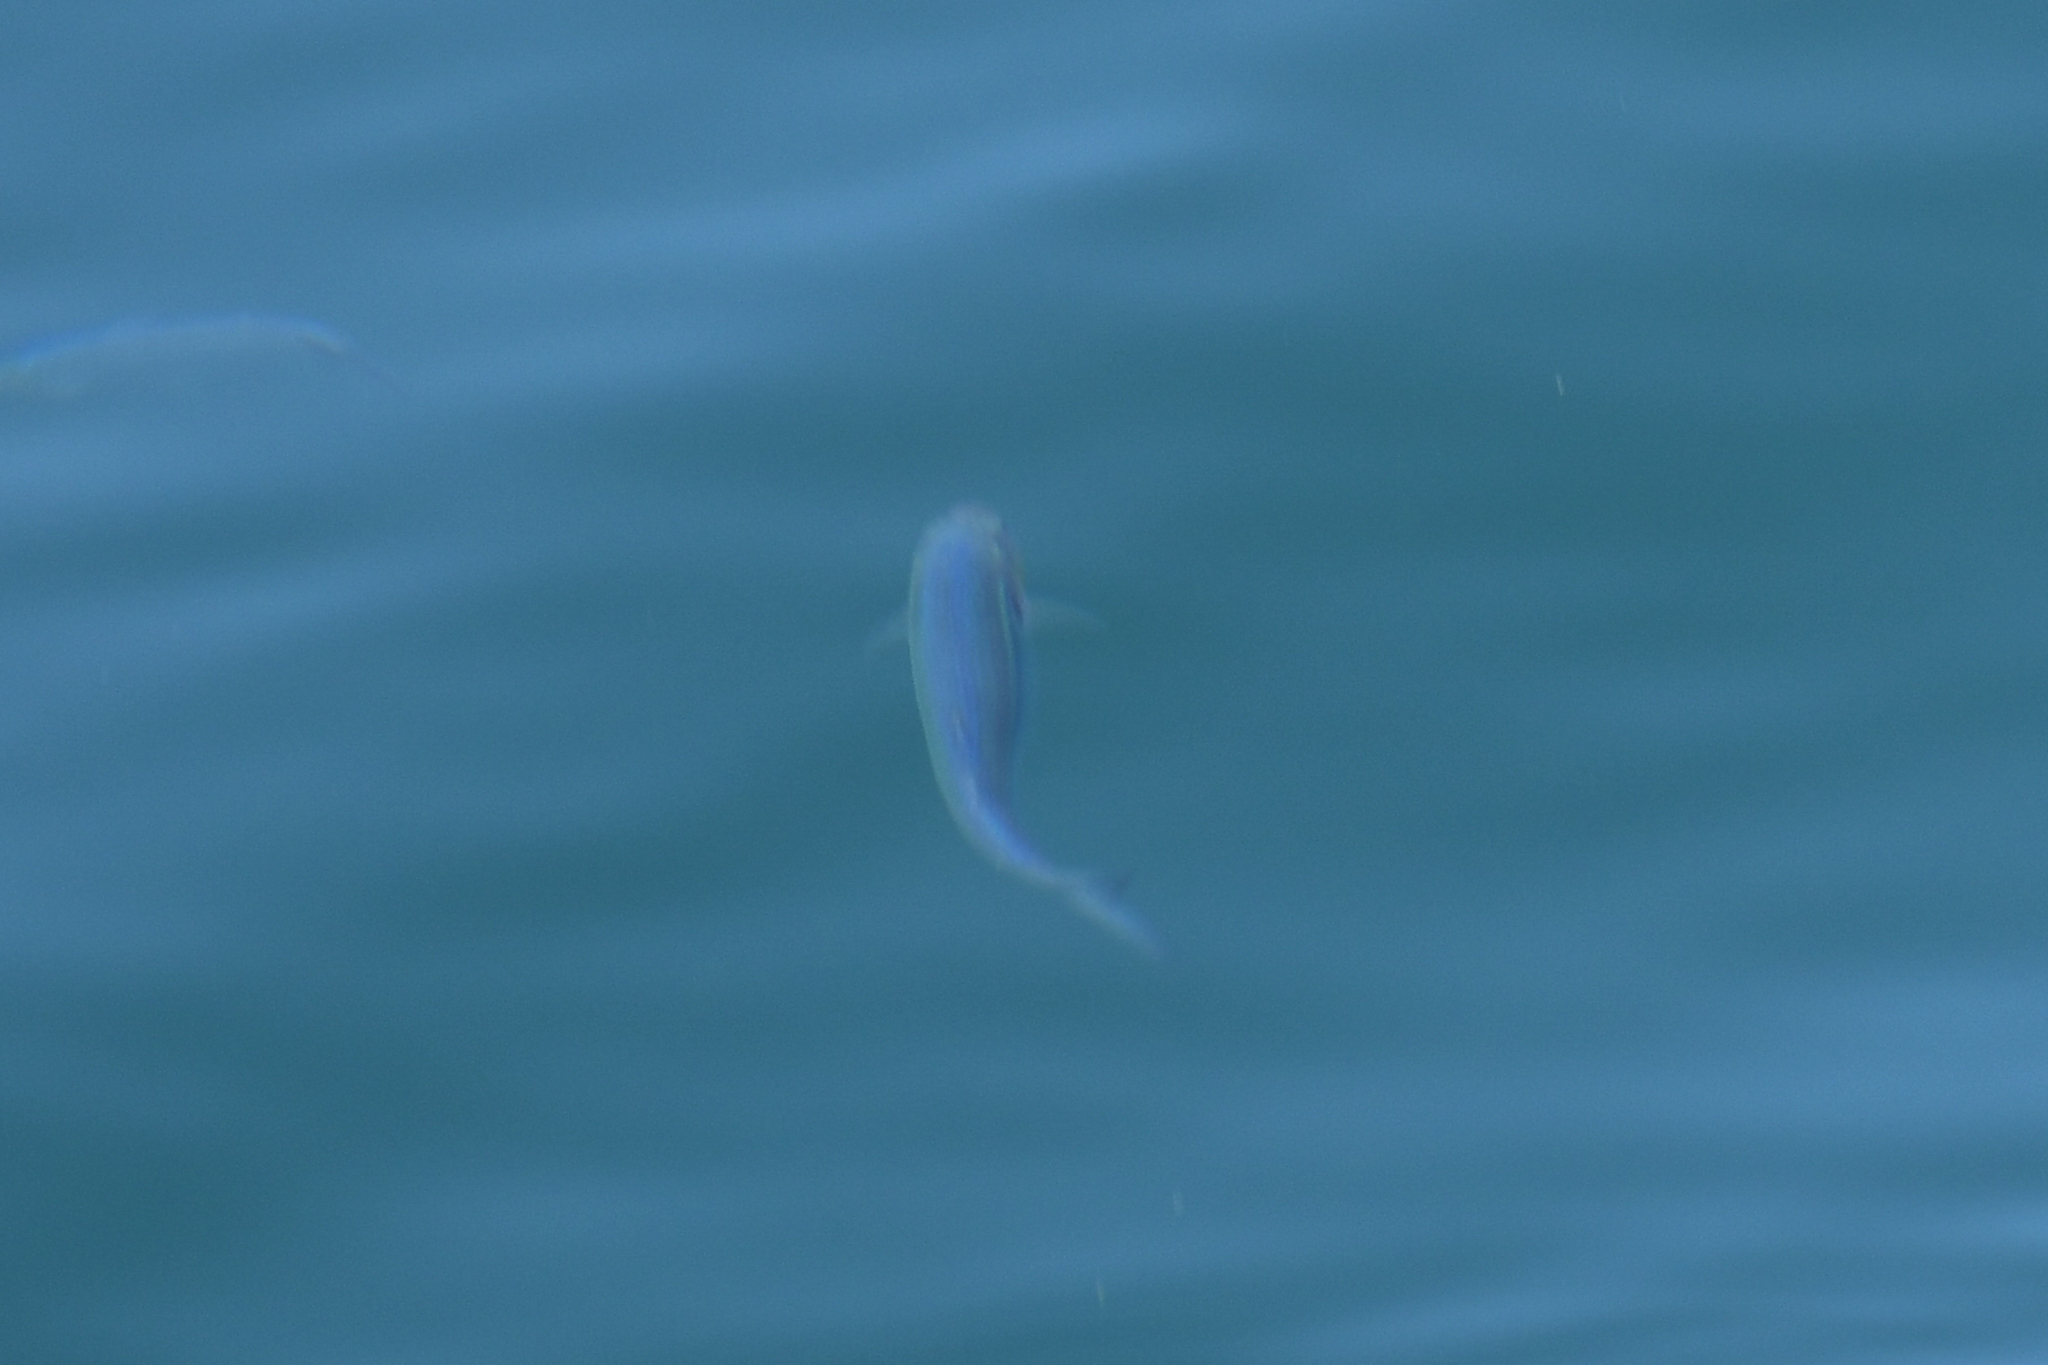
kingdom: Animalia
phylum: Chordata
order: Atheriniformes
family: Atherinopsidae
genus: Atherinopsis
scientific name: Atherinopsis californiensis
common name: Jack silverside
